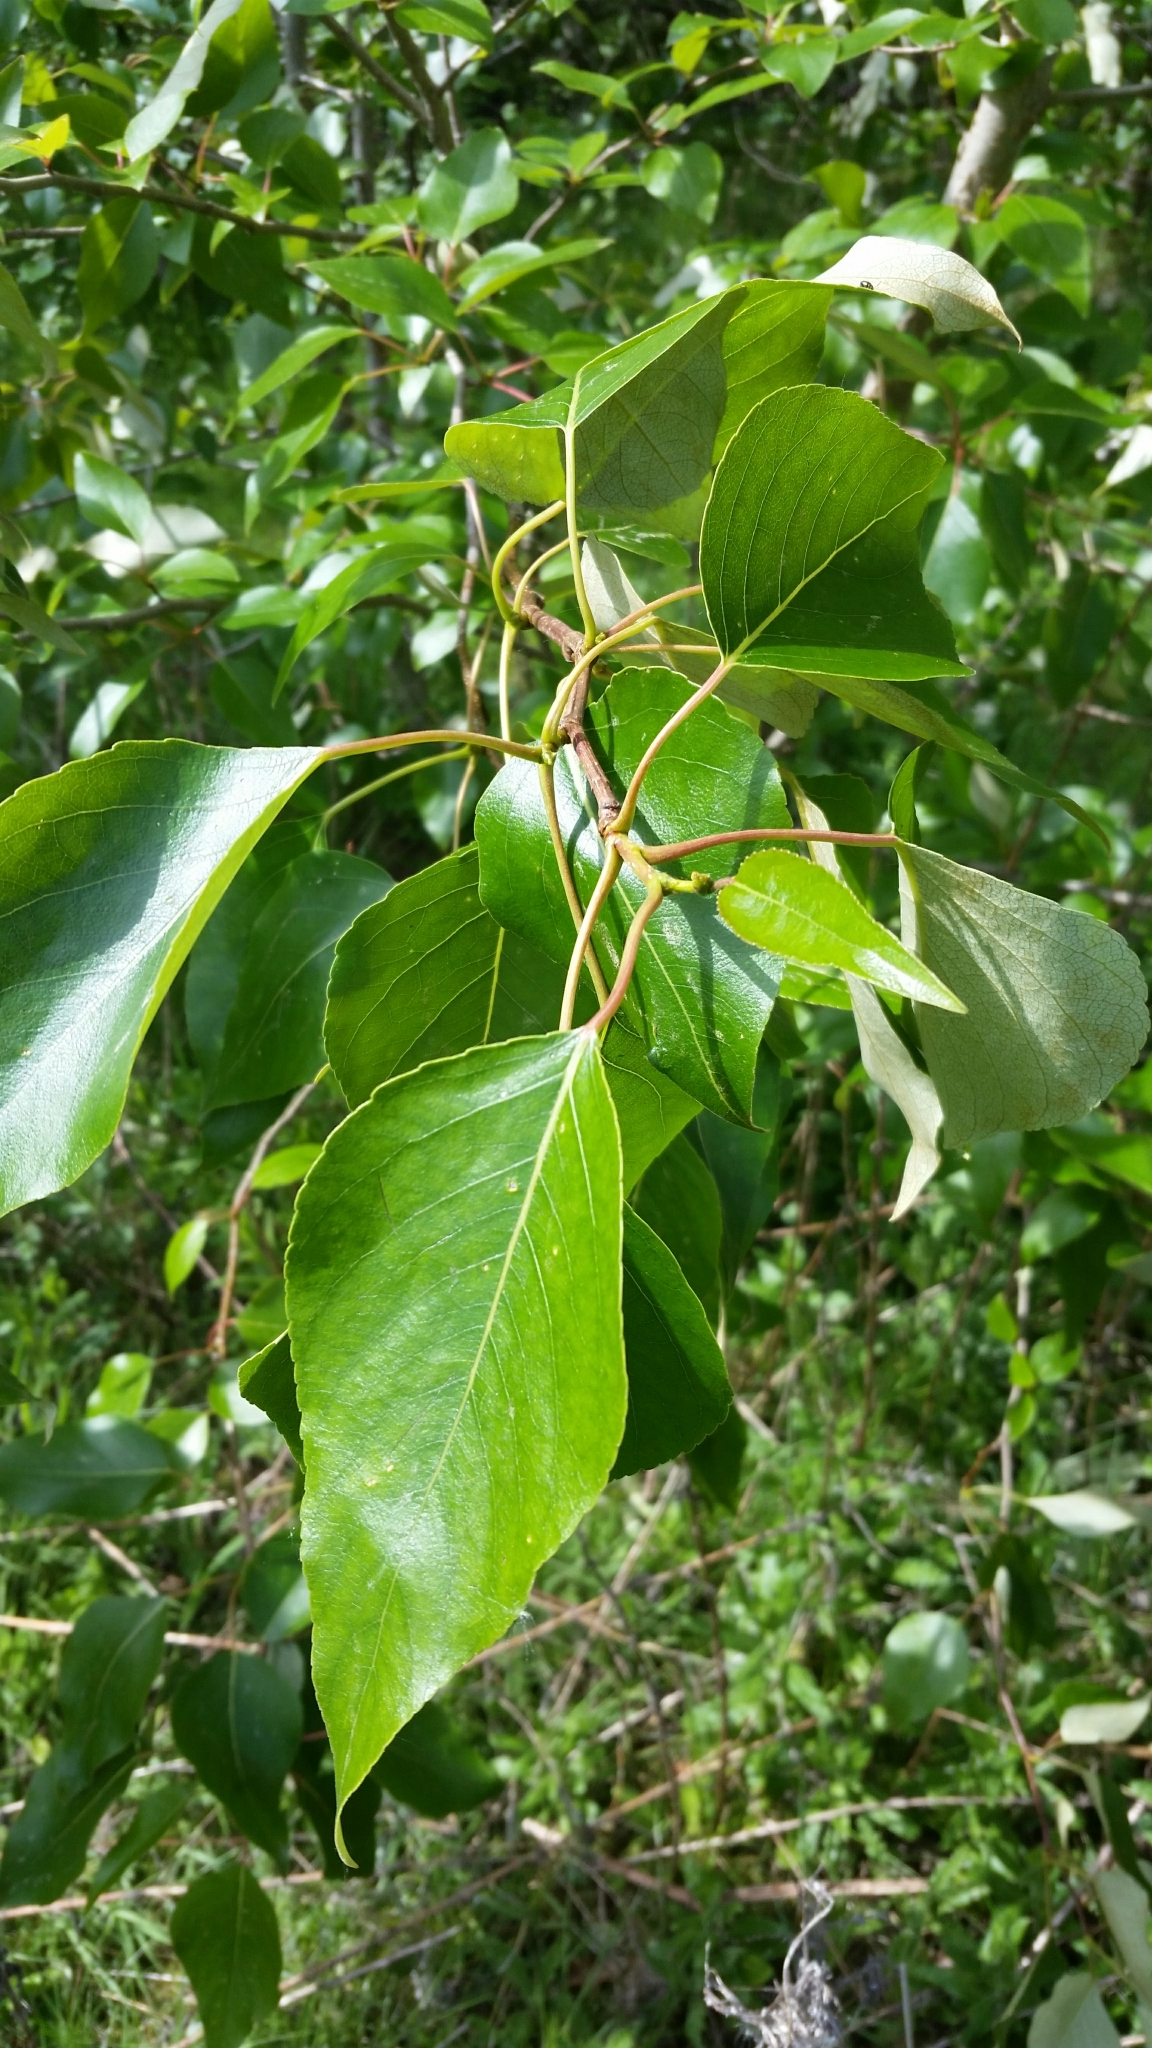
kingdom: Plantae
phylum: Tracheophyta
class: Magnoliopsida
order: Malpighiales
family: Salicaceae
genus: Populus
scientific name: Populus trichocarpa
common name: Black cottonwood
